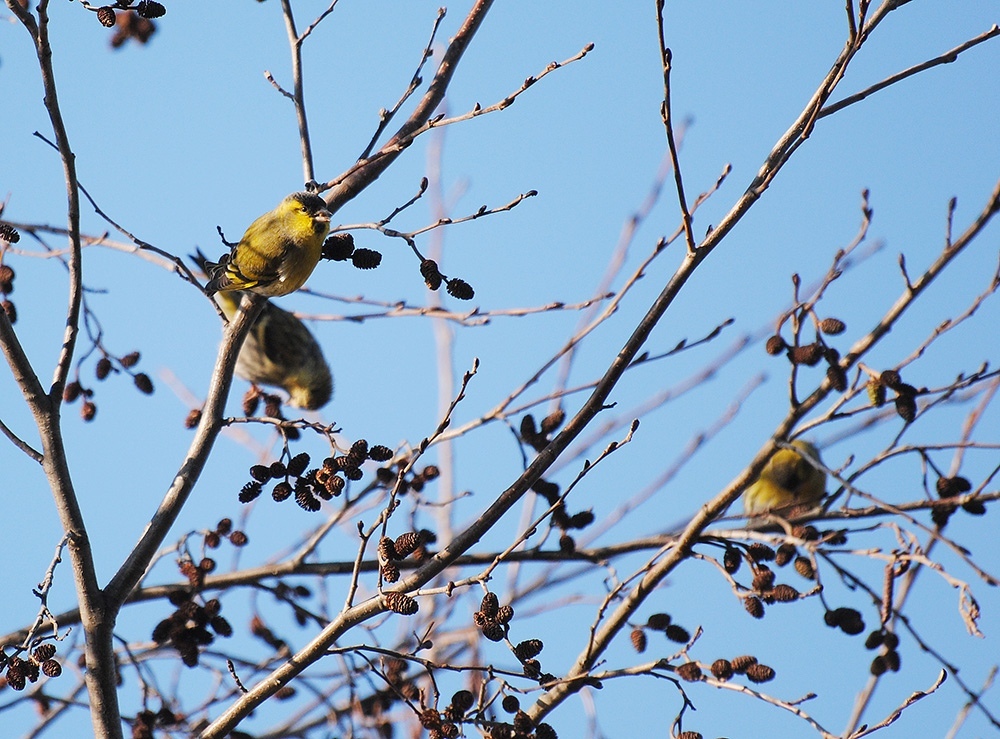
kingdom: Animalia
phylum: Chordata
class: Aves
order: Passeriformes
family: Fringillidae
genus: Spinus
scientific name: Spinus spinus
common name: Eurasian siskin
